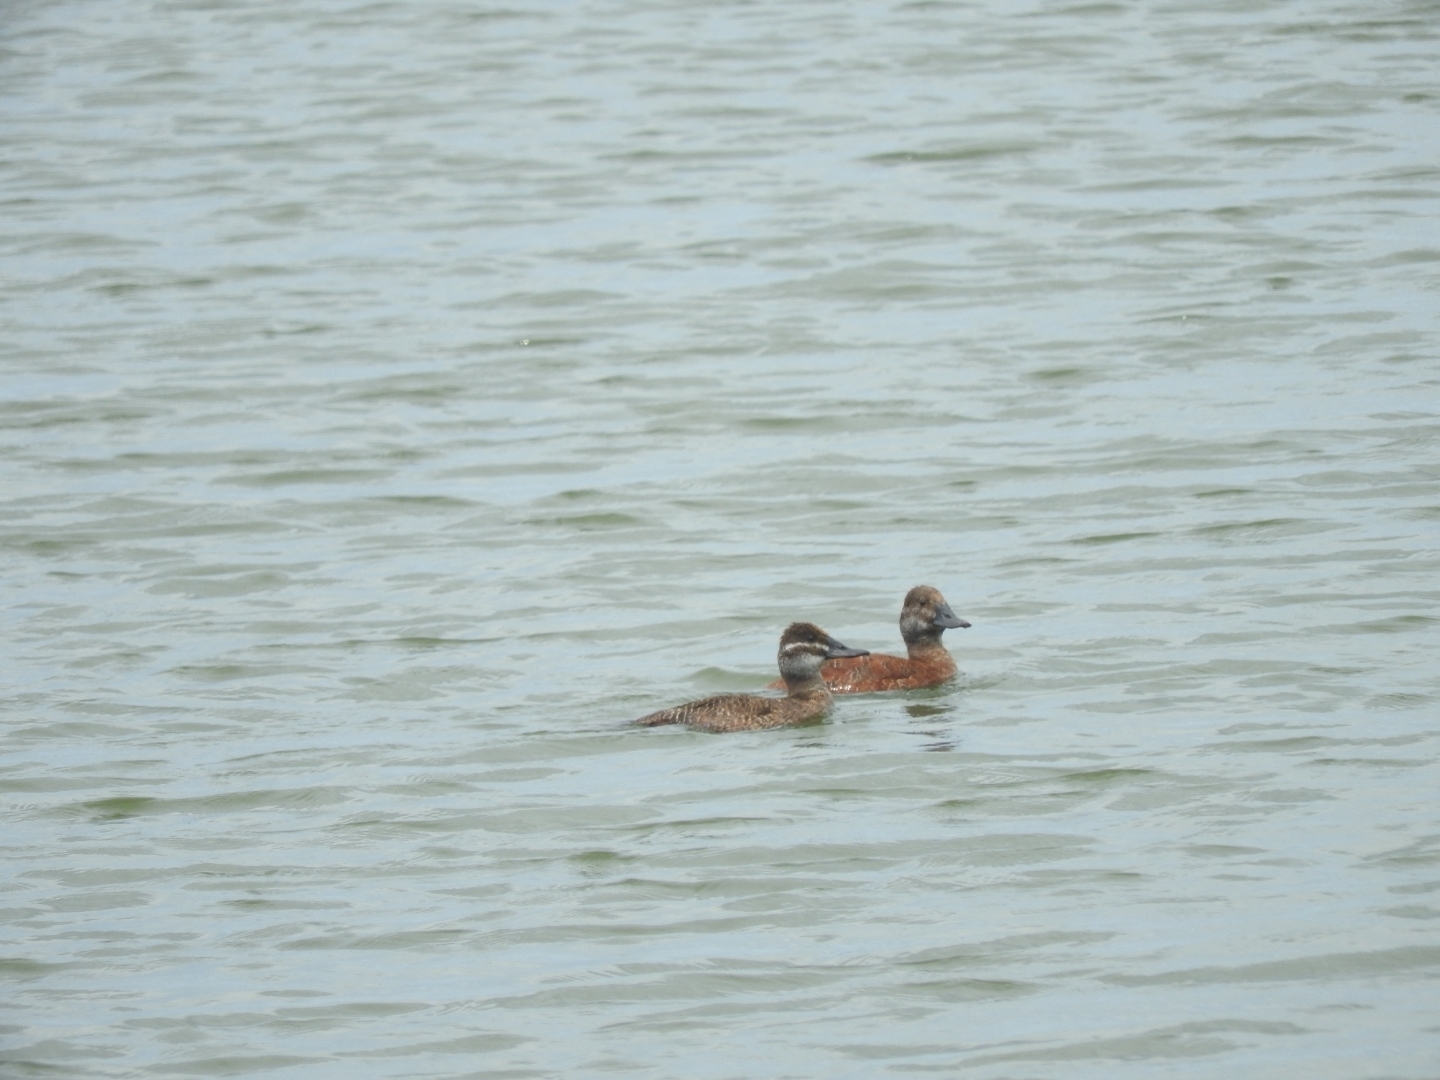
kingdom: Animalia
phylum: Chordata
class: Aves
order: Anseriformes
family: Anatidae
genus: Oxyura
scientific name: Oxyura vittata
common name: Lake duck
